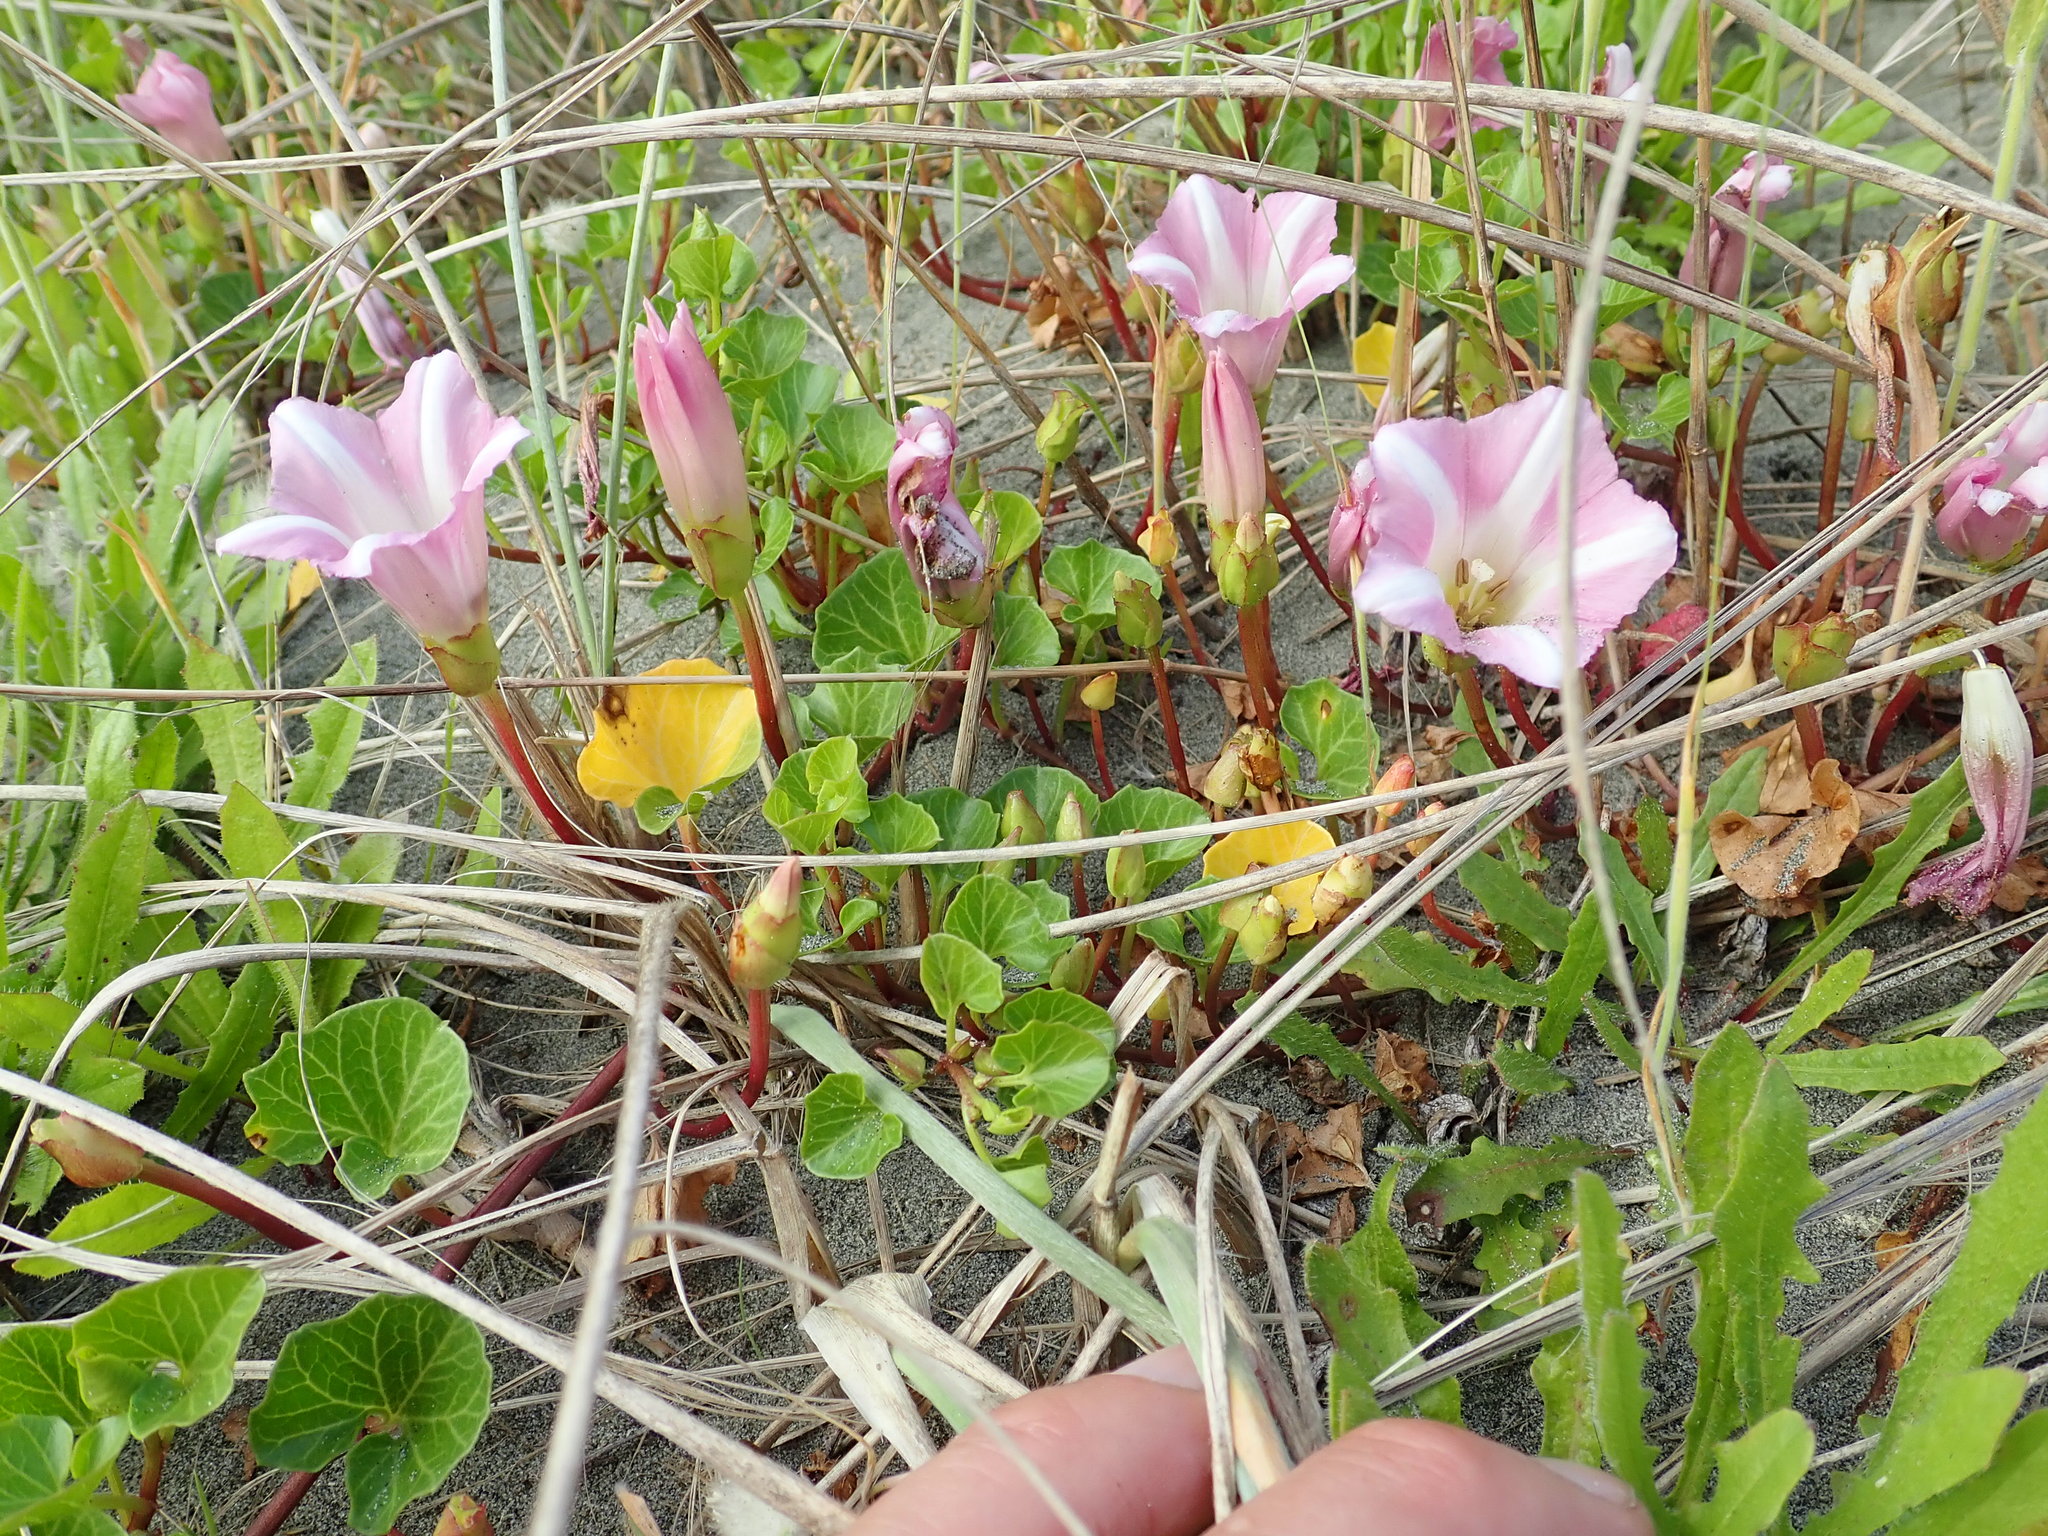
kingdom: Plantae
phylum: Tracheophyta
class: Magnoliopsida
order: Solanales
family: Convolvulaceae
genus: Calystegia
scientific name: Calystegia soldanella
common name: Sea bindweed
